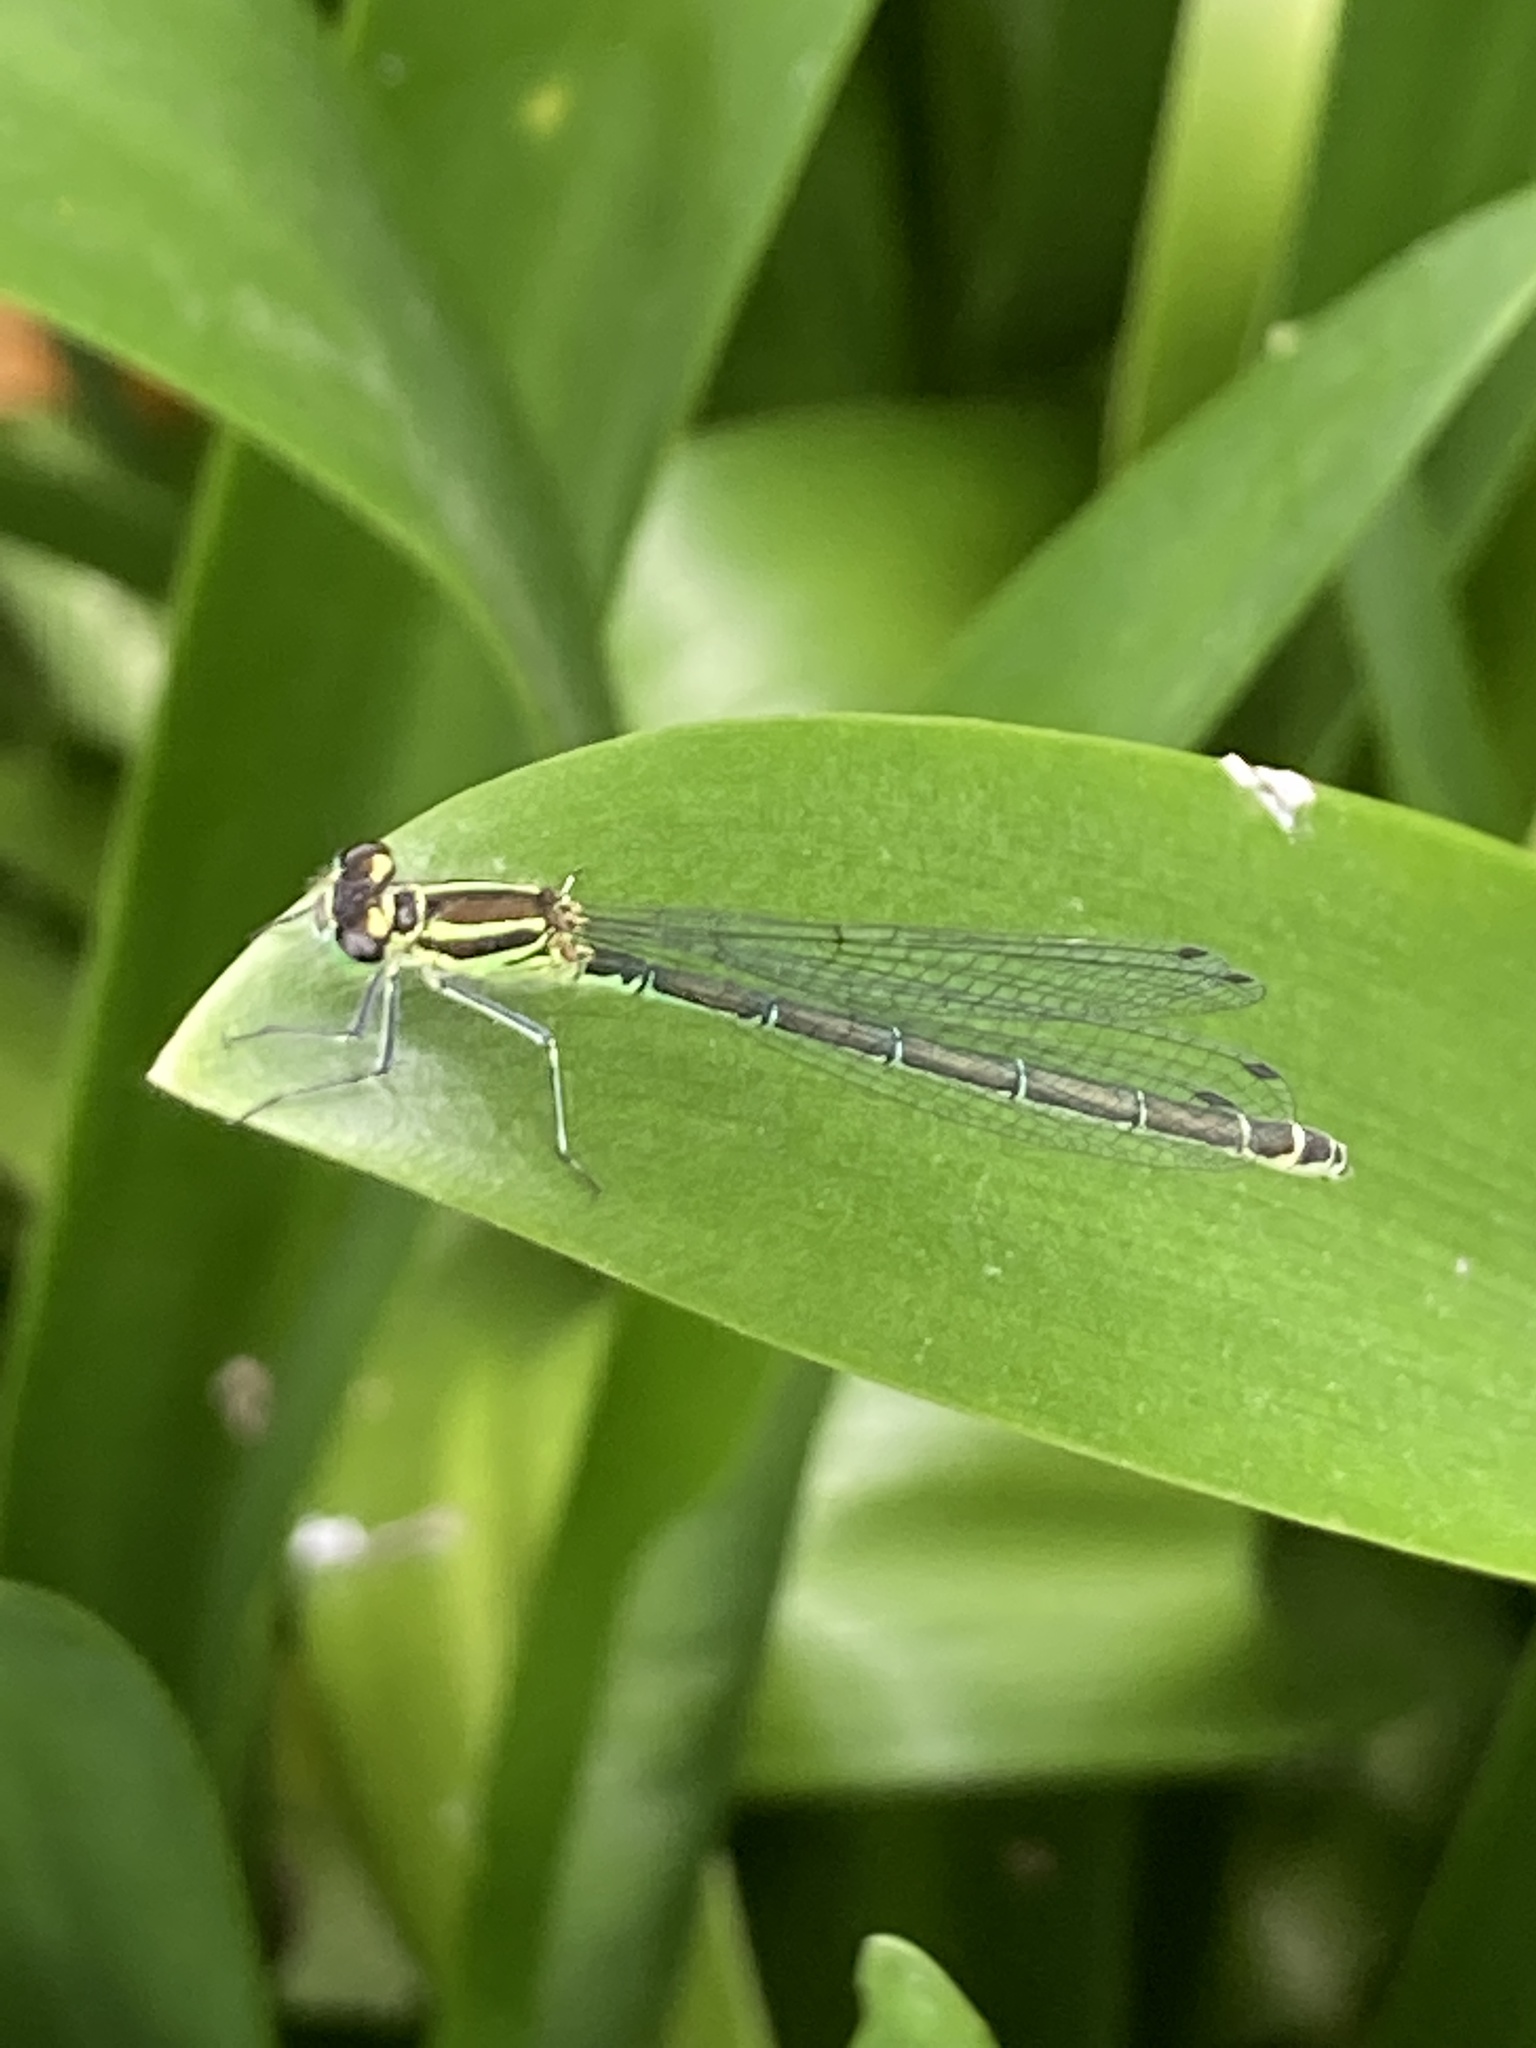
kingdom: Animalia
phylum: Arthropoda
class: Insecta
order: Odonata
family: Coenagrionidae
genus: Coenagrion
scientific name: Coenagrion puella
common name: Azure damselfly
